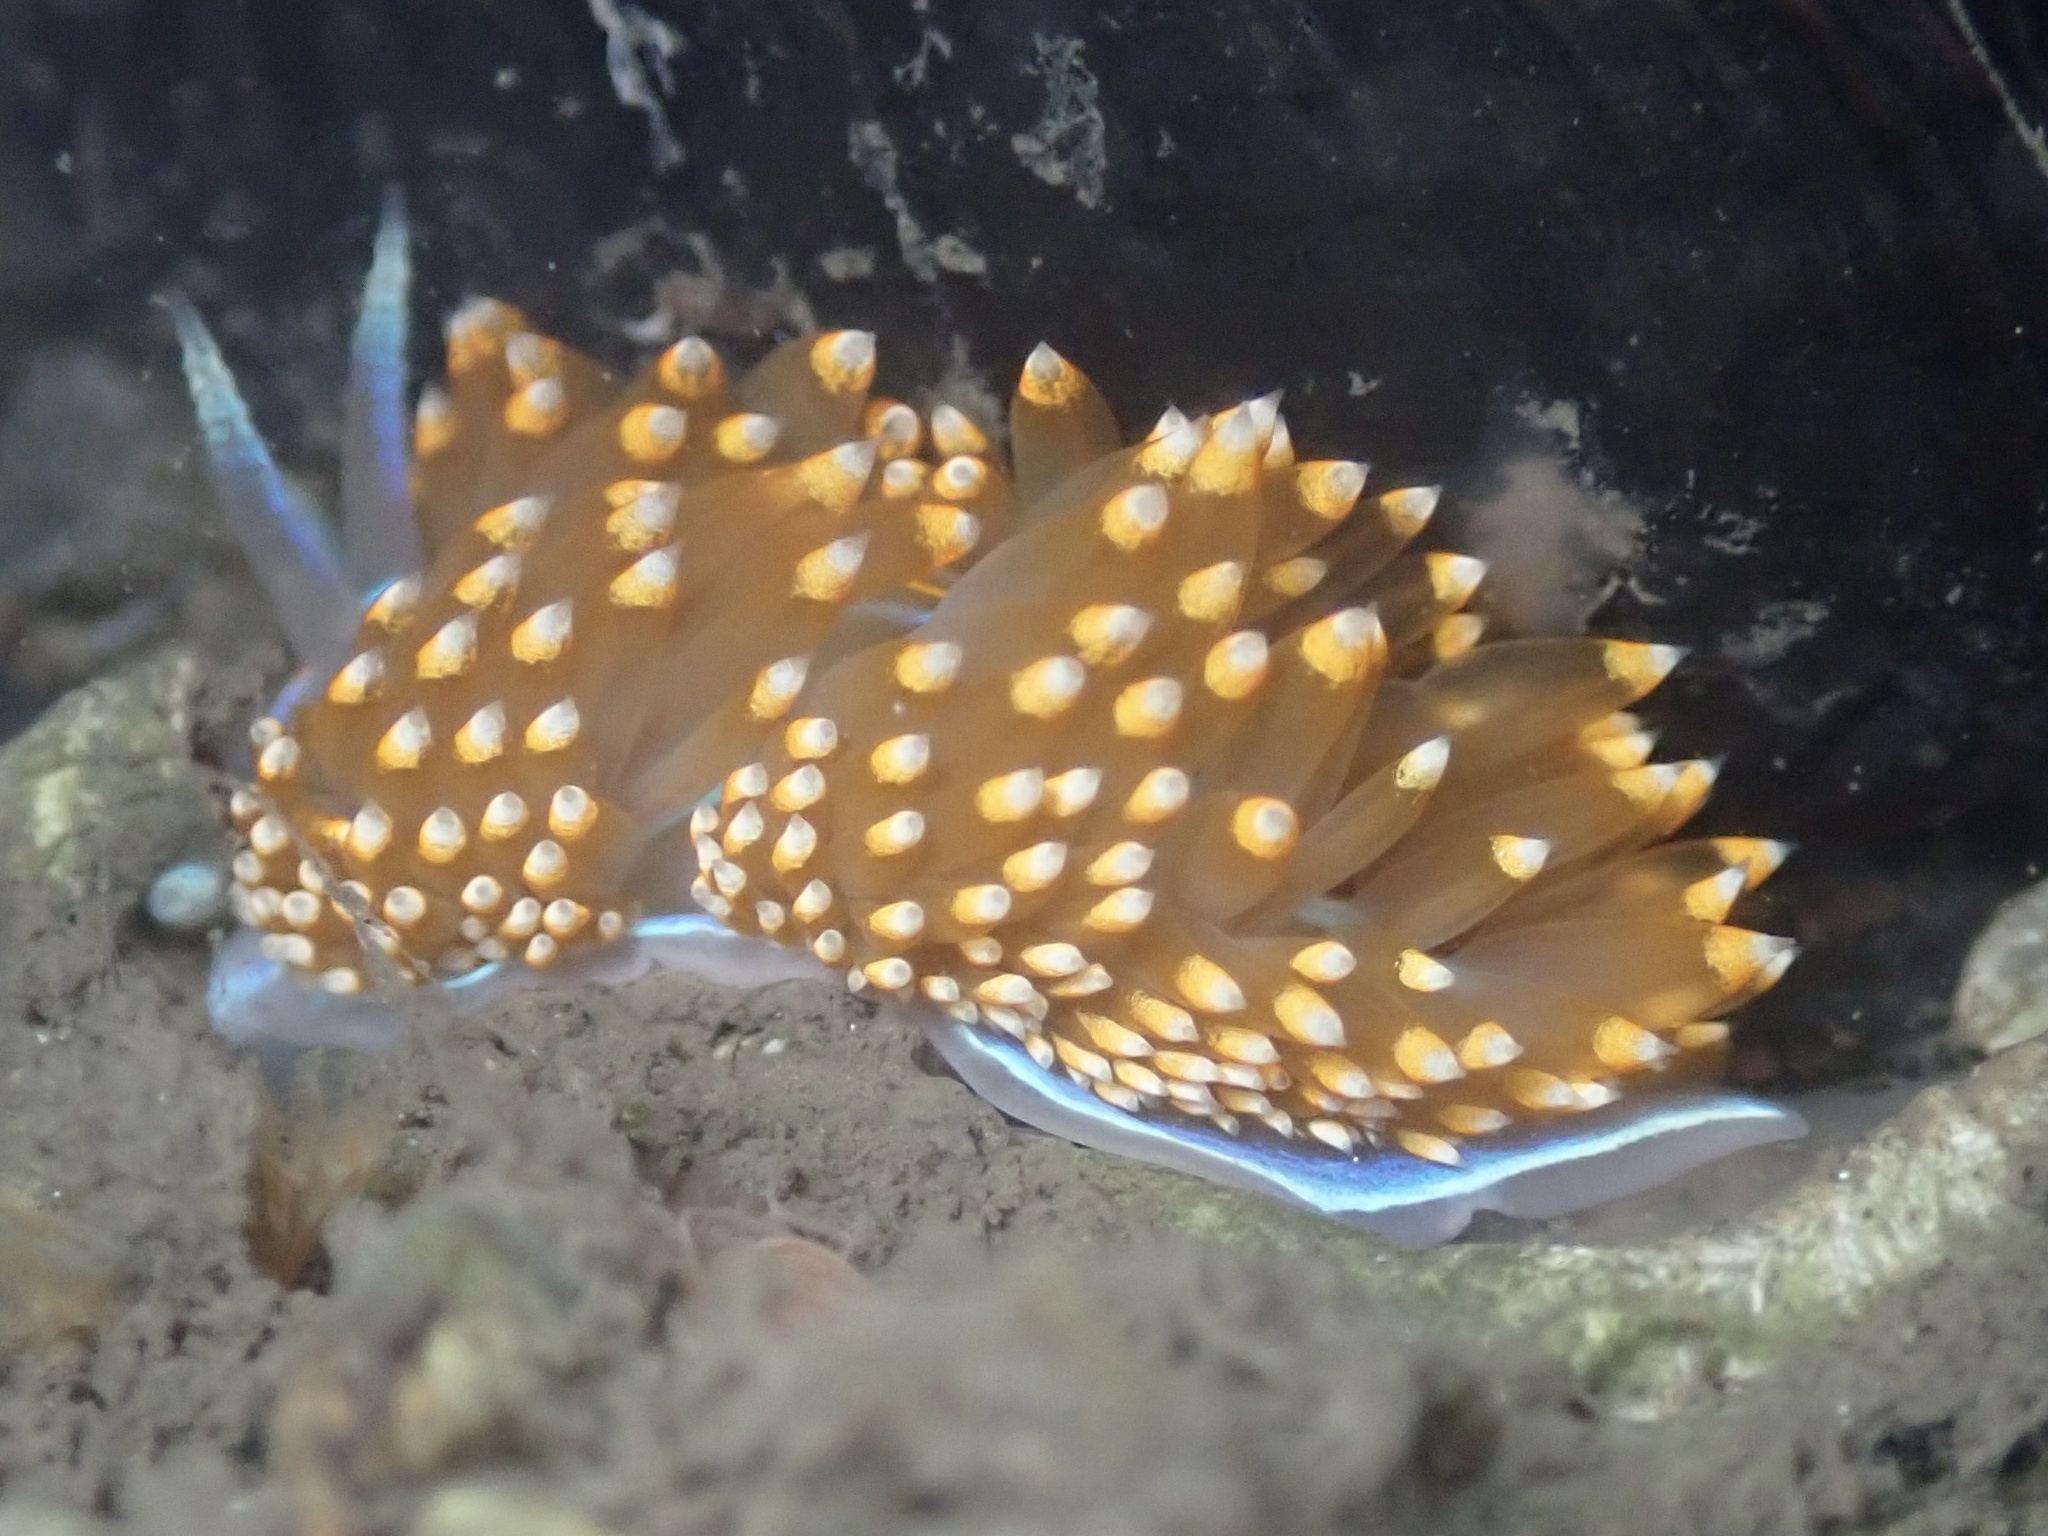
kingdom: Animalia
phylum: Mollusca
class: Gastropoda
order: Nudibranchia
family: Myrrhinidae
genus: Hermissenda
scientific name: Hermissenda opalescens
